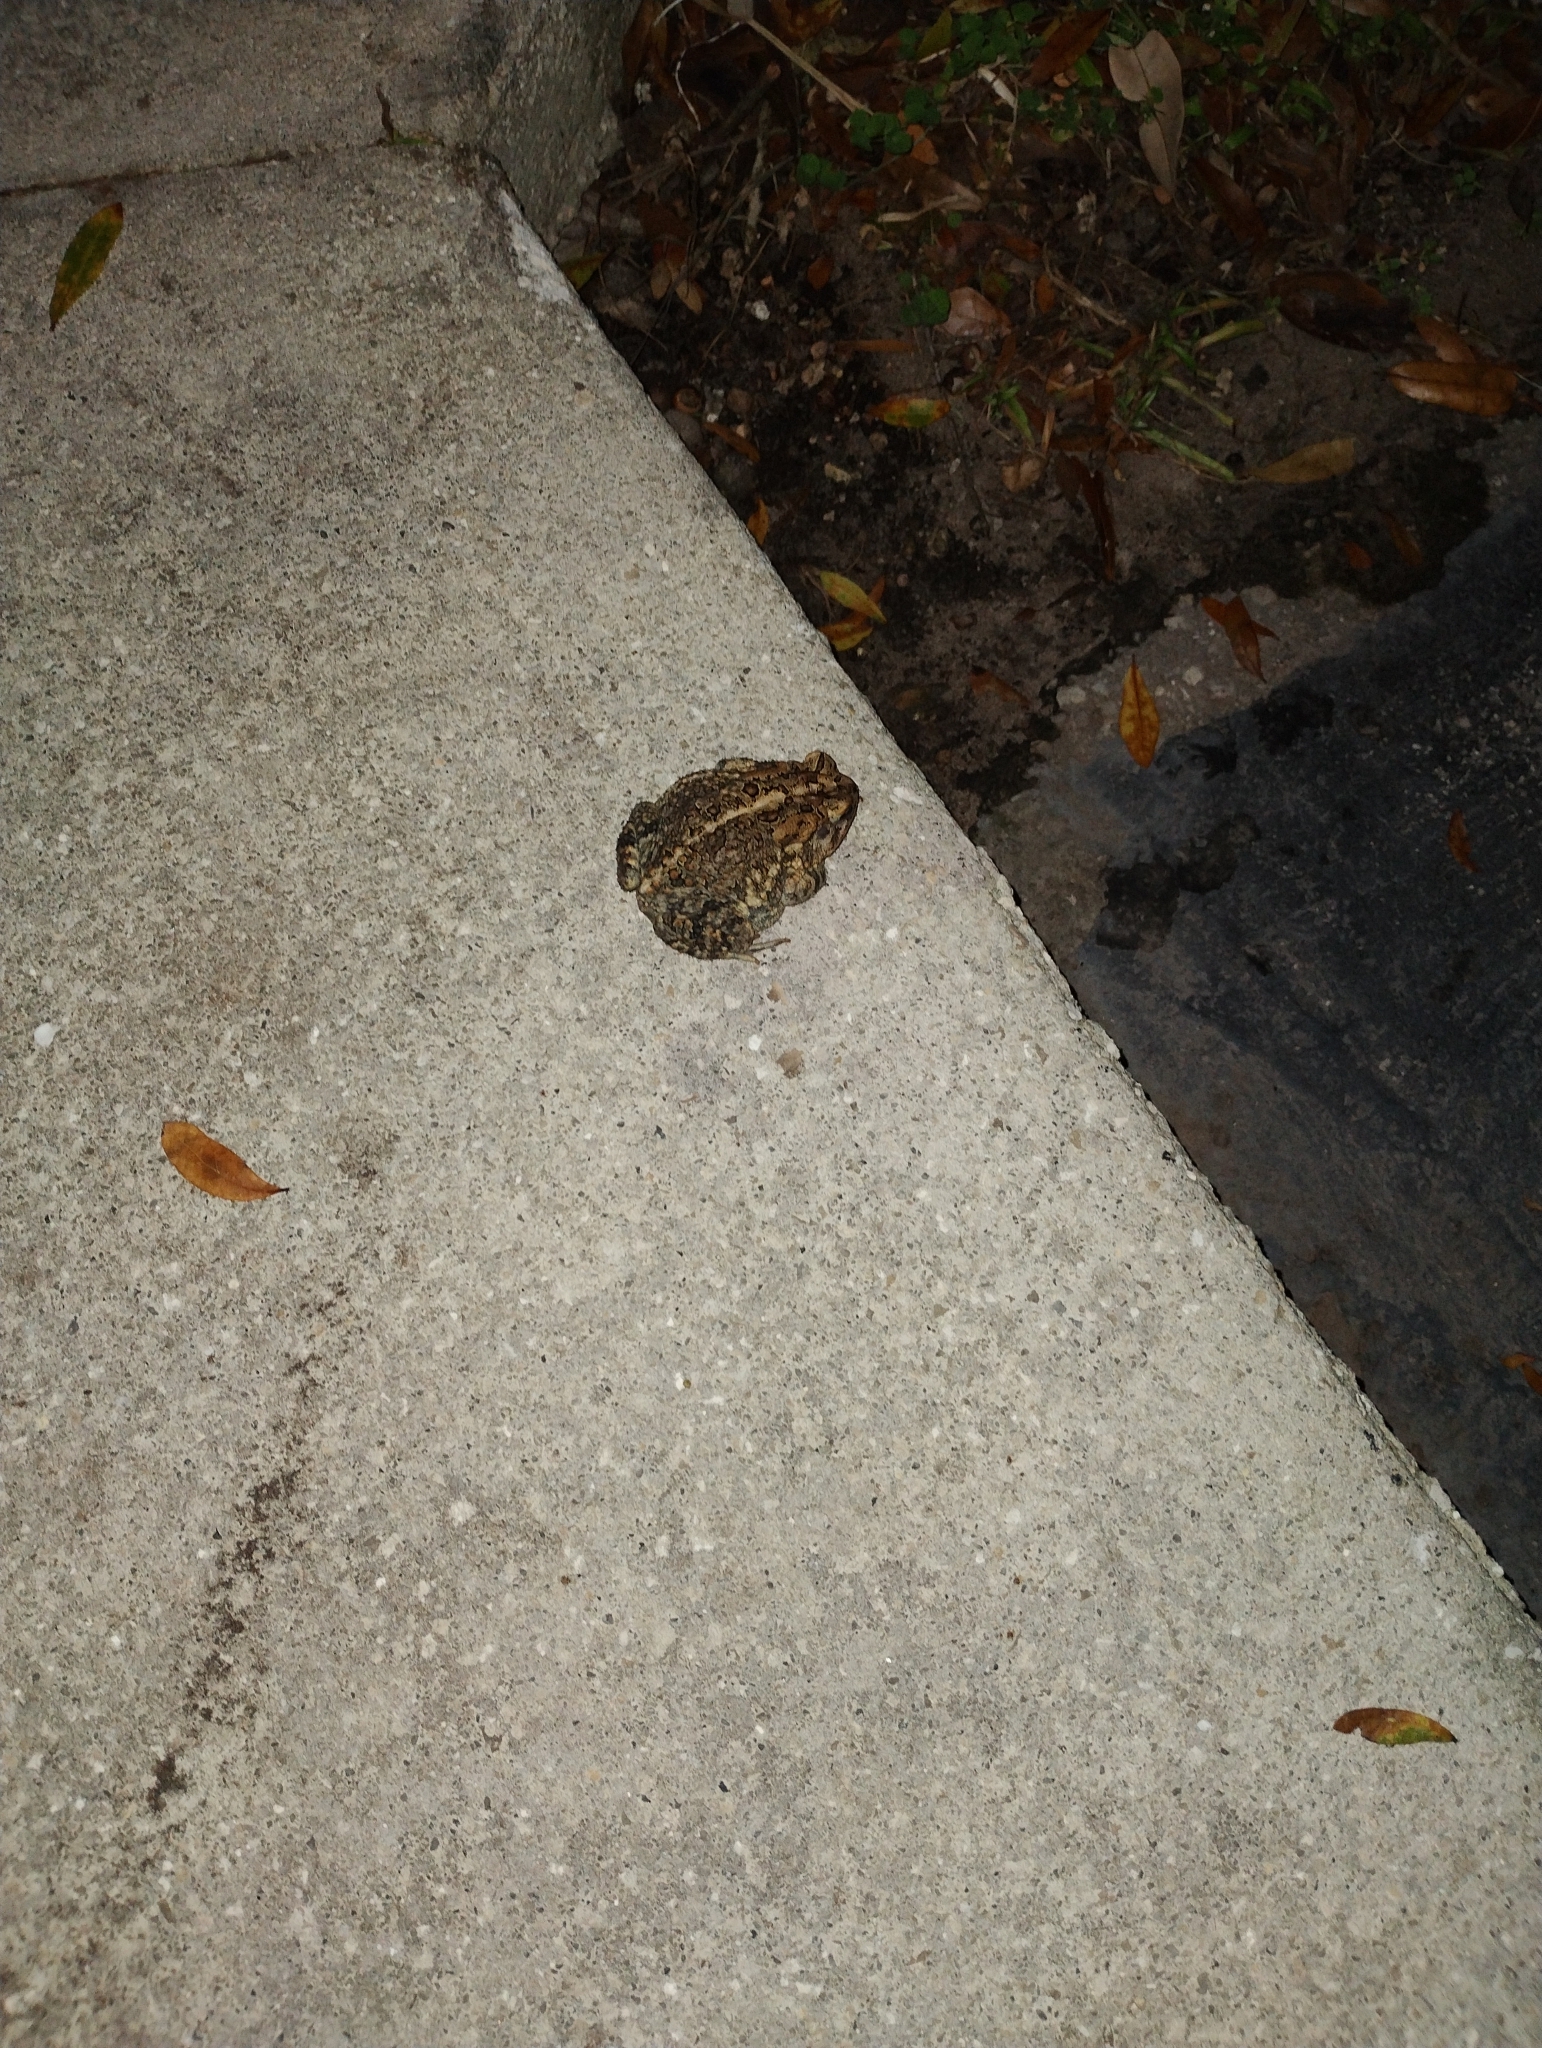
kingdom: Animalia
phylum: Chordata
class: Amphibia
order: Anura
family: Bufonidae
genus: Anaxyrus
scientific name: Anaxyrus terrestris
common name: Southern toad
